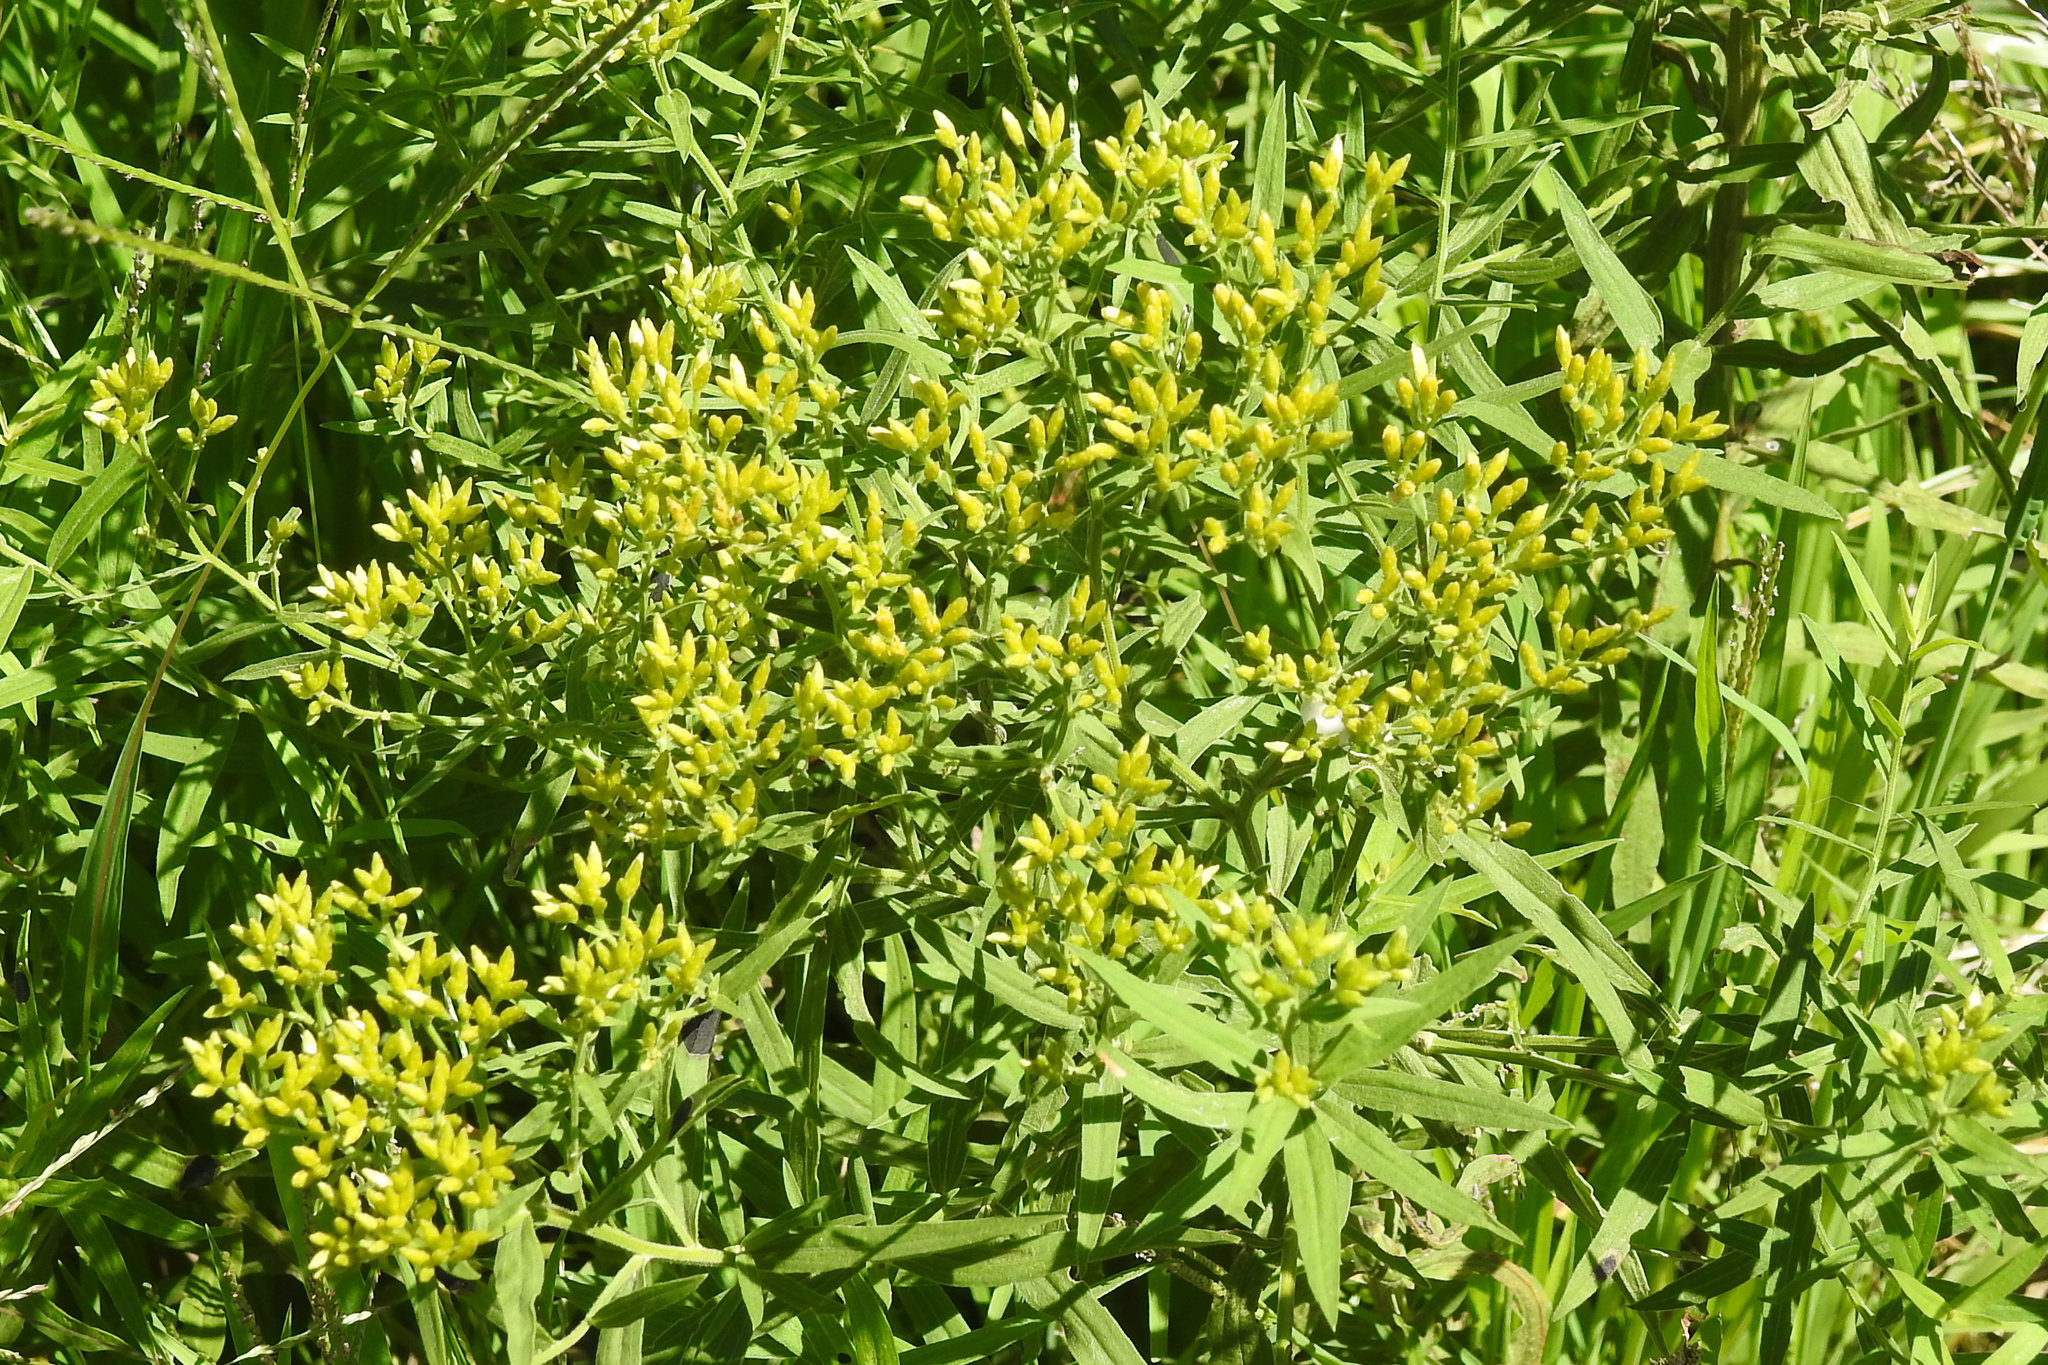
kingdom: Plantae
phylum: Tracheophyta
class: Magnoliopsida
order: Asterales
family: Asteraceae
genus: Euthamia
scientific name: Euthamia graminifolia
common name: Common goldentop
